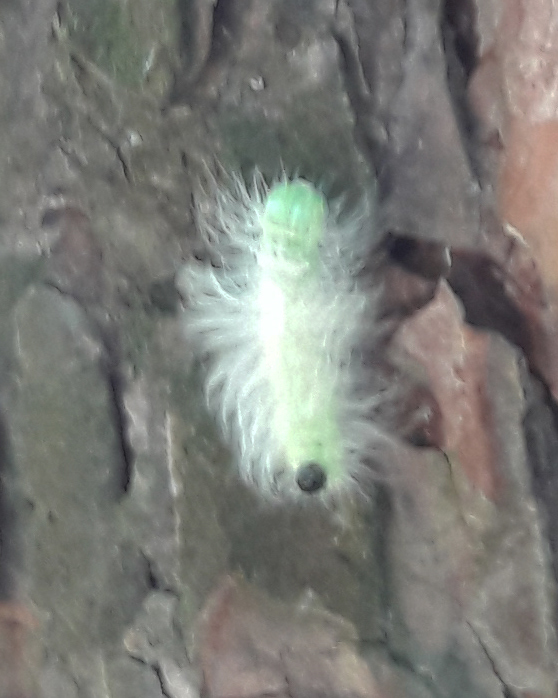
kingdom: Animalia
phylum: Arthropoda
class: Insecta
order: Lepidoptera
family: Noctuidae
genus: Acronicta
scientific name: Acronicta leporina
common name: Miller
